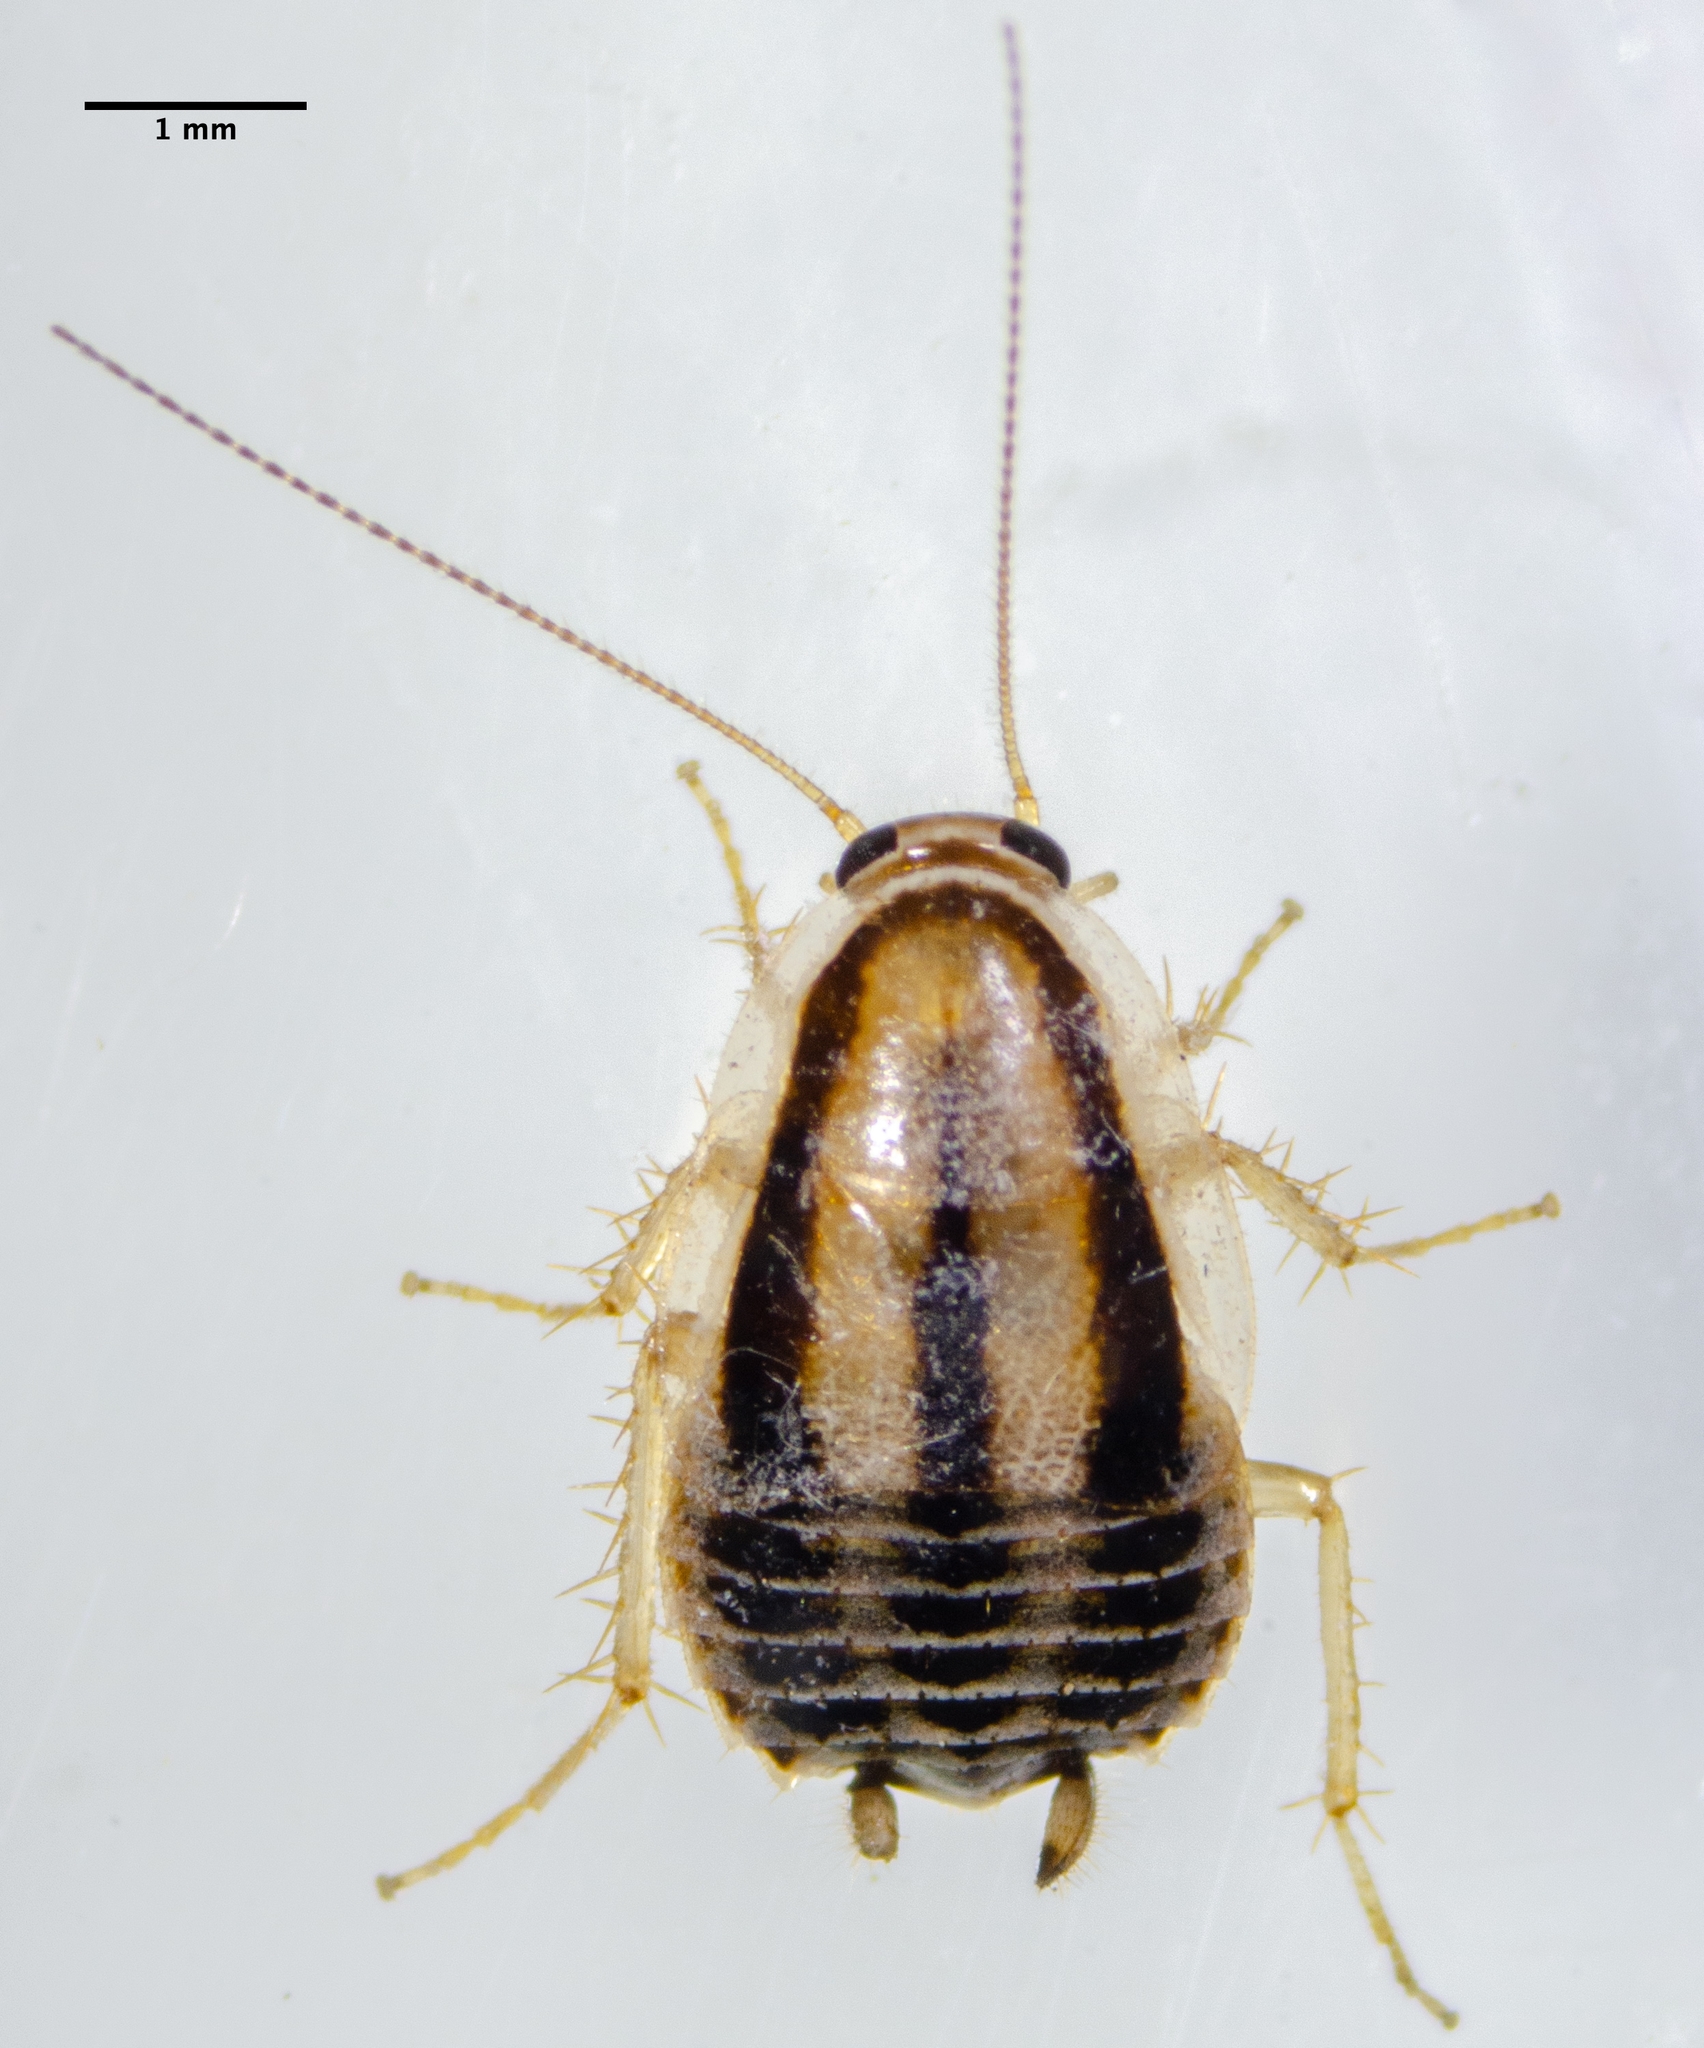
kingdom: Animalia
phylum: Arthropoda
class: Insecta
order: Blattodea
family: Ectobiidae
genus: Luridiblatta
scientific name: Luridiblatta trivittata
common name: Three-lined cockroach
